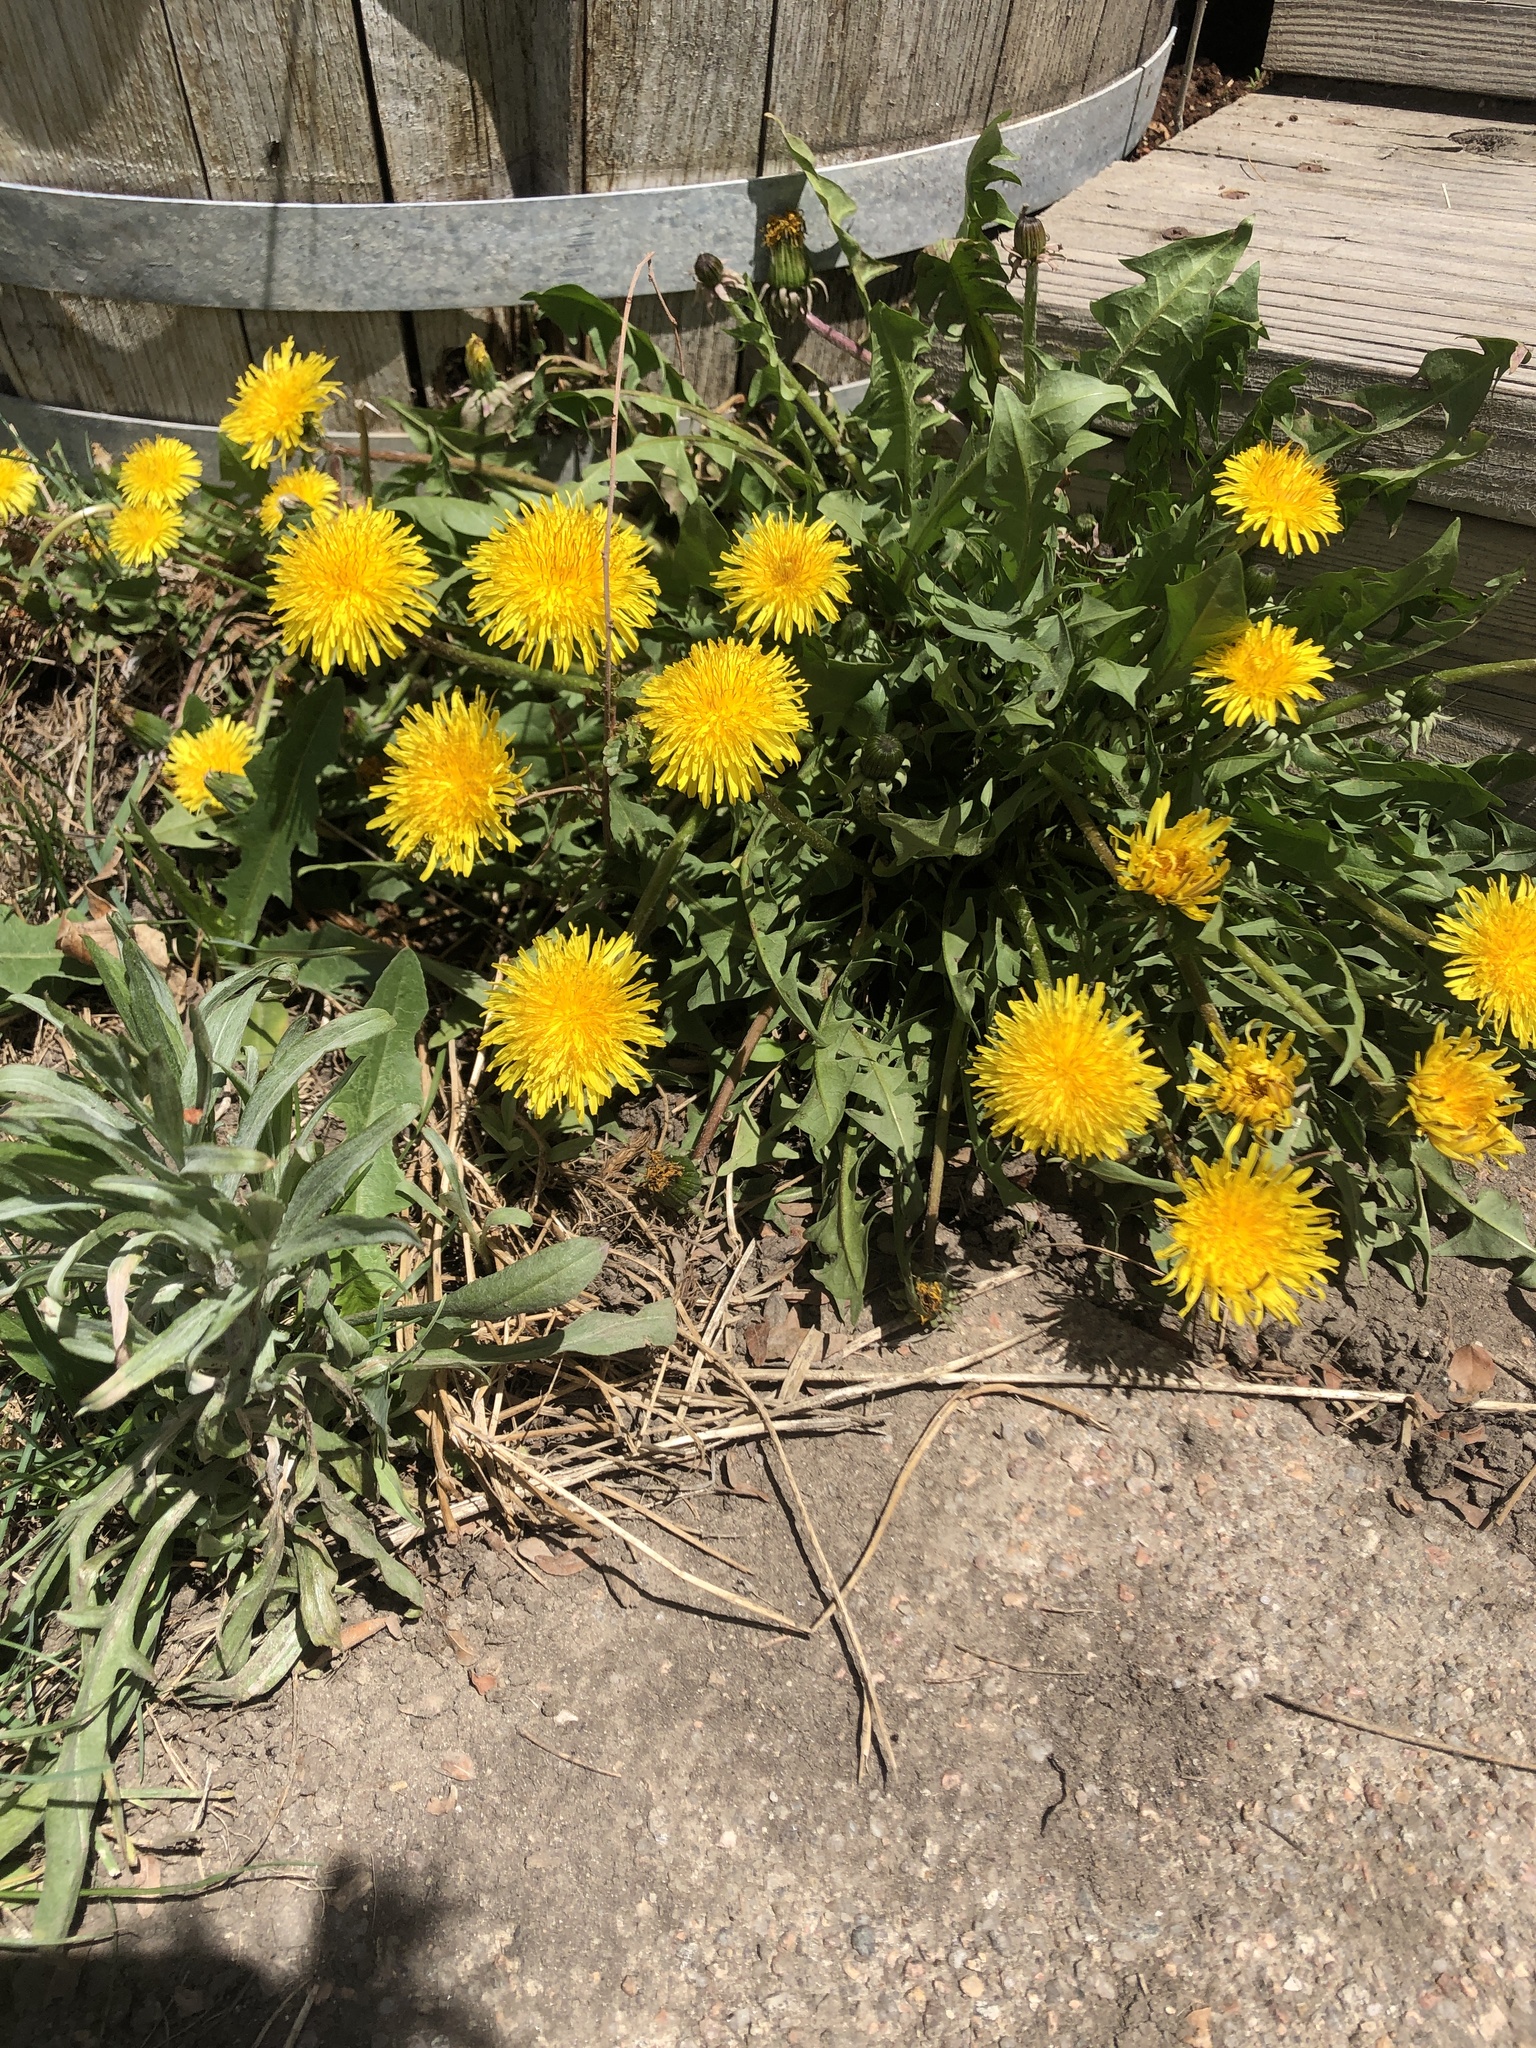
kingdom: Plantae
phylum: Tracheophyta
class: Magnoliopsida
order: Asterales
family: Asteraceae
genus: Taraxacum
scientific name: Taraxacum officinale
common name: Common dandelion
